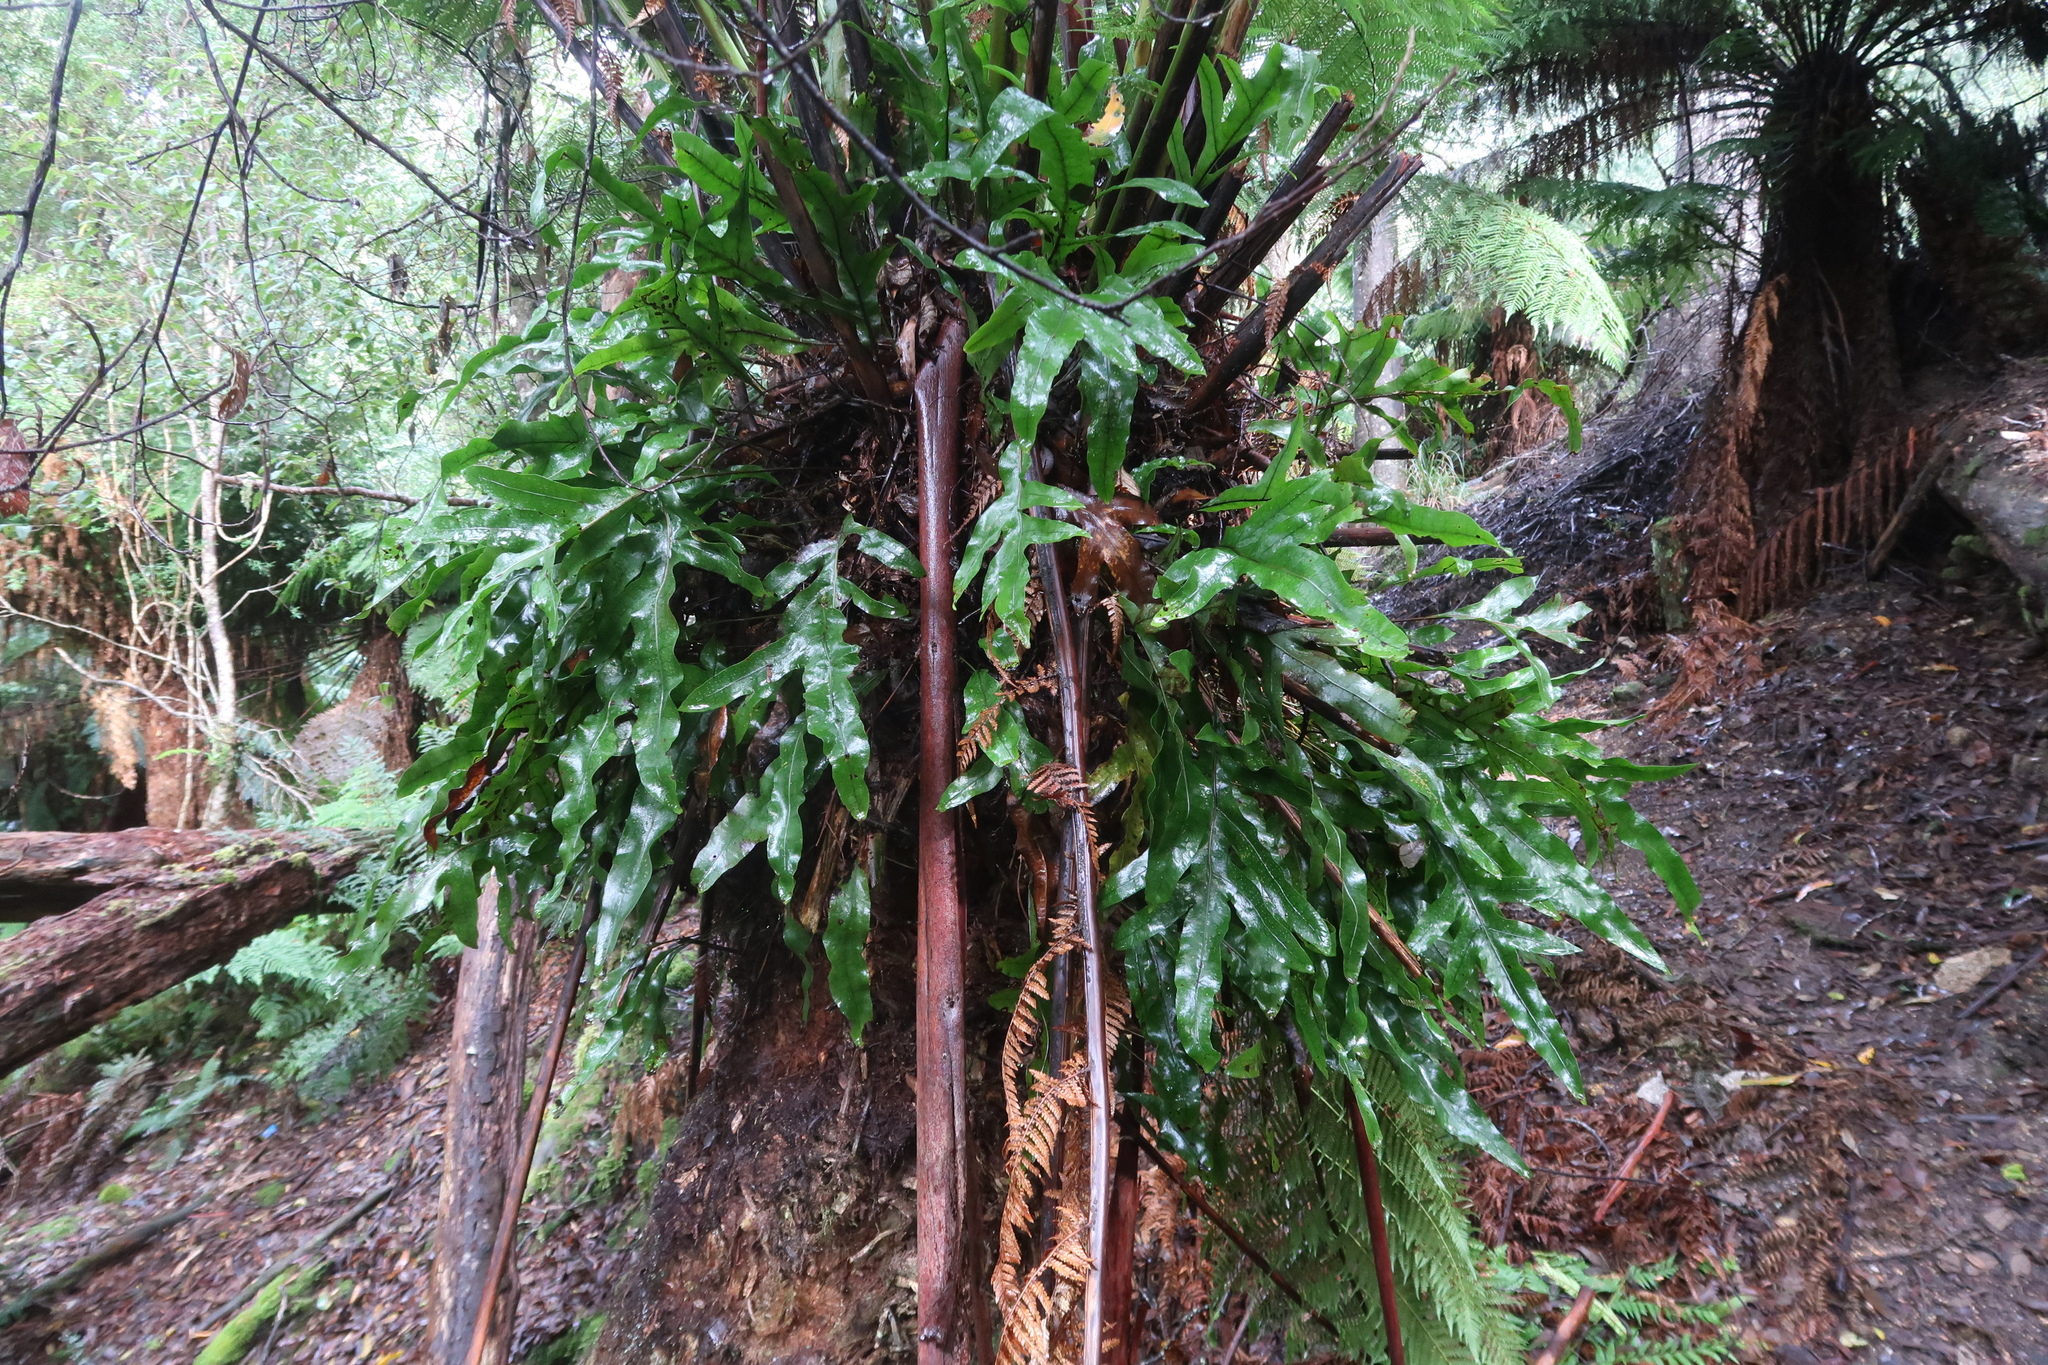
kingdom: Plantae
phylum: Tracheophyta
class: Polypodiopsida
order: Polypodiales
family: Polypodiaceae
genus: Lecanopteris
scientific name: Lecanopteris pustulata
